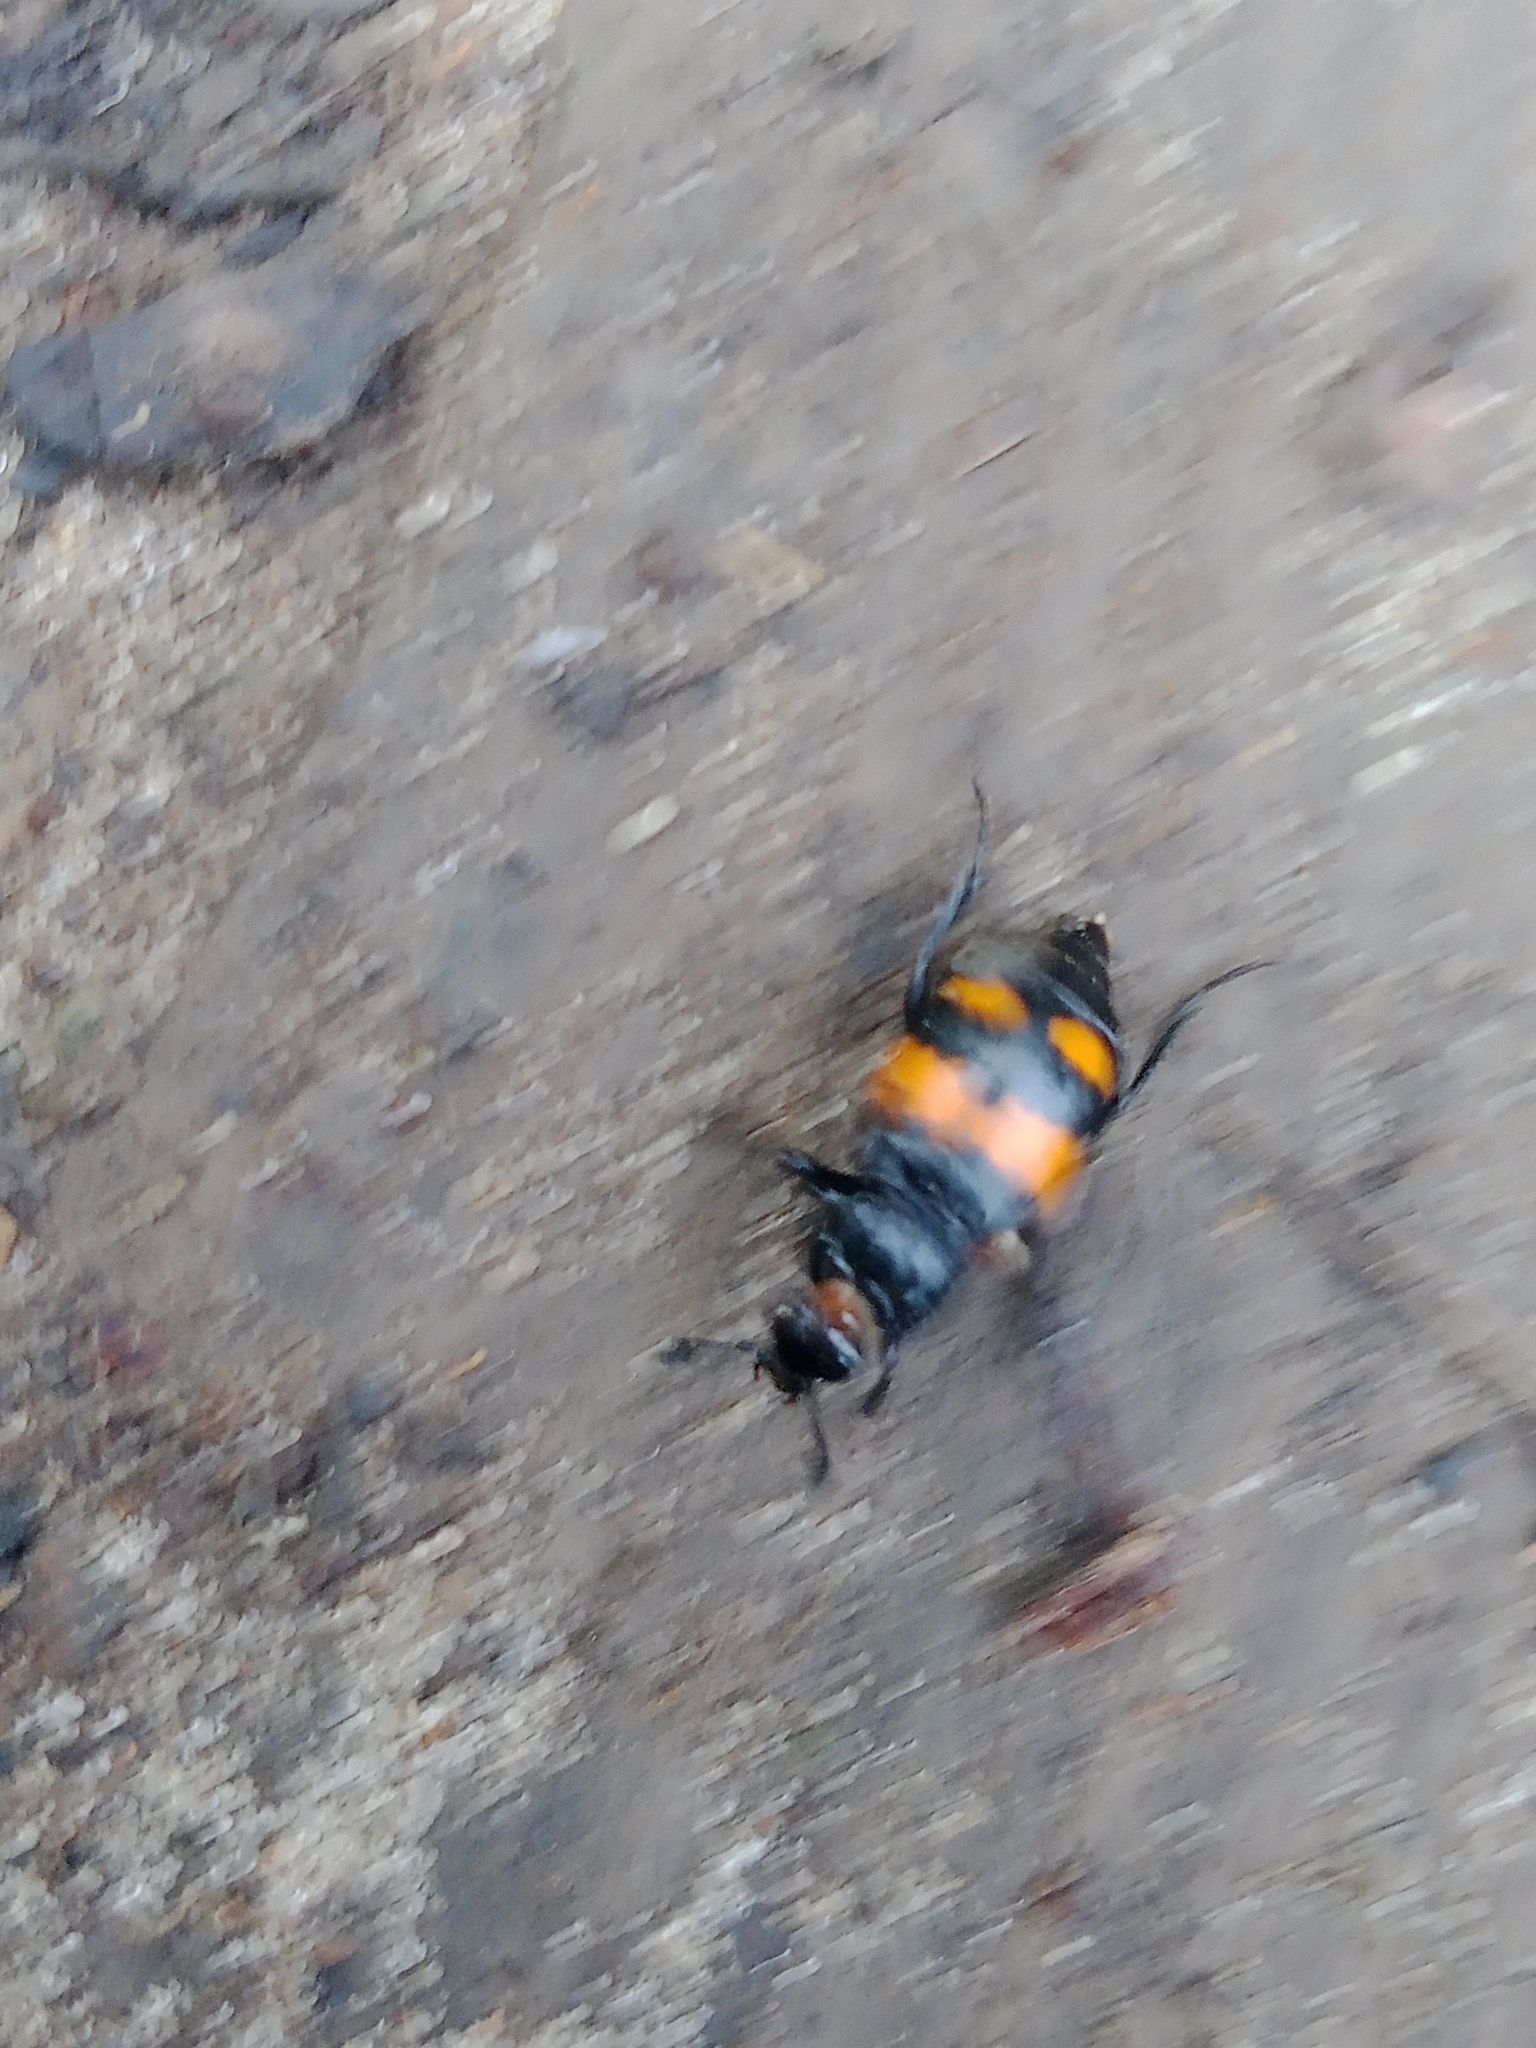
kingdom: Animalia
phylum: Arthropoda
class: Insecta
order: Coleoptera
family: Staphylinidae
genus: Nicrophorus
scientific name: Nicrophorus vespilloides
